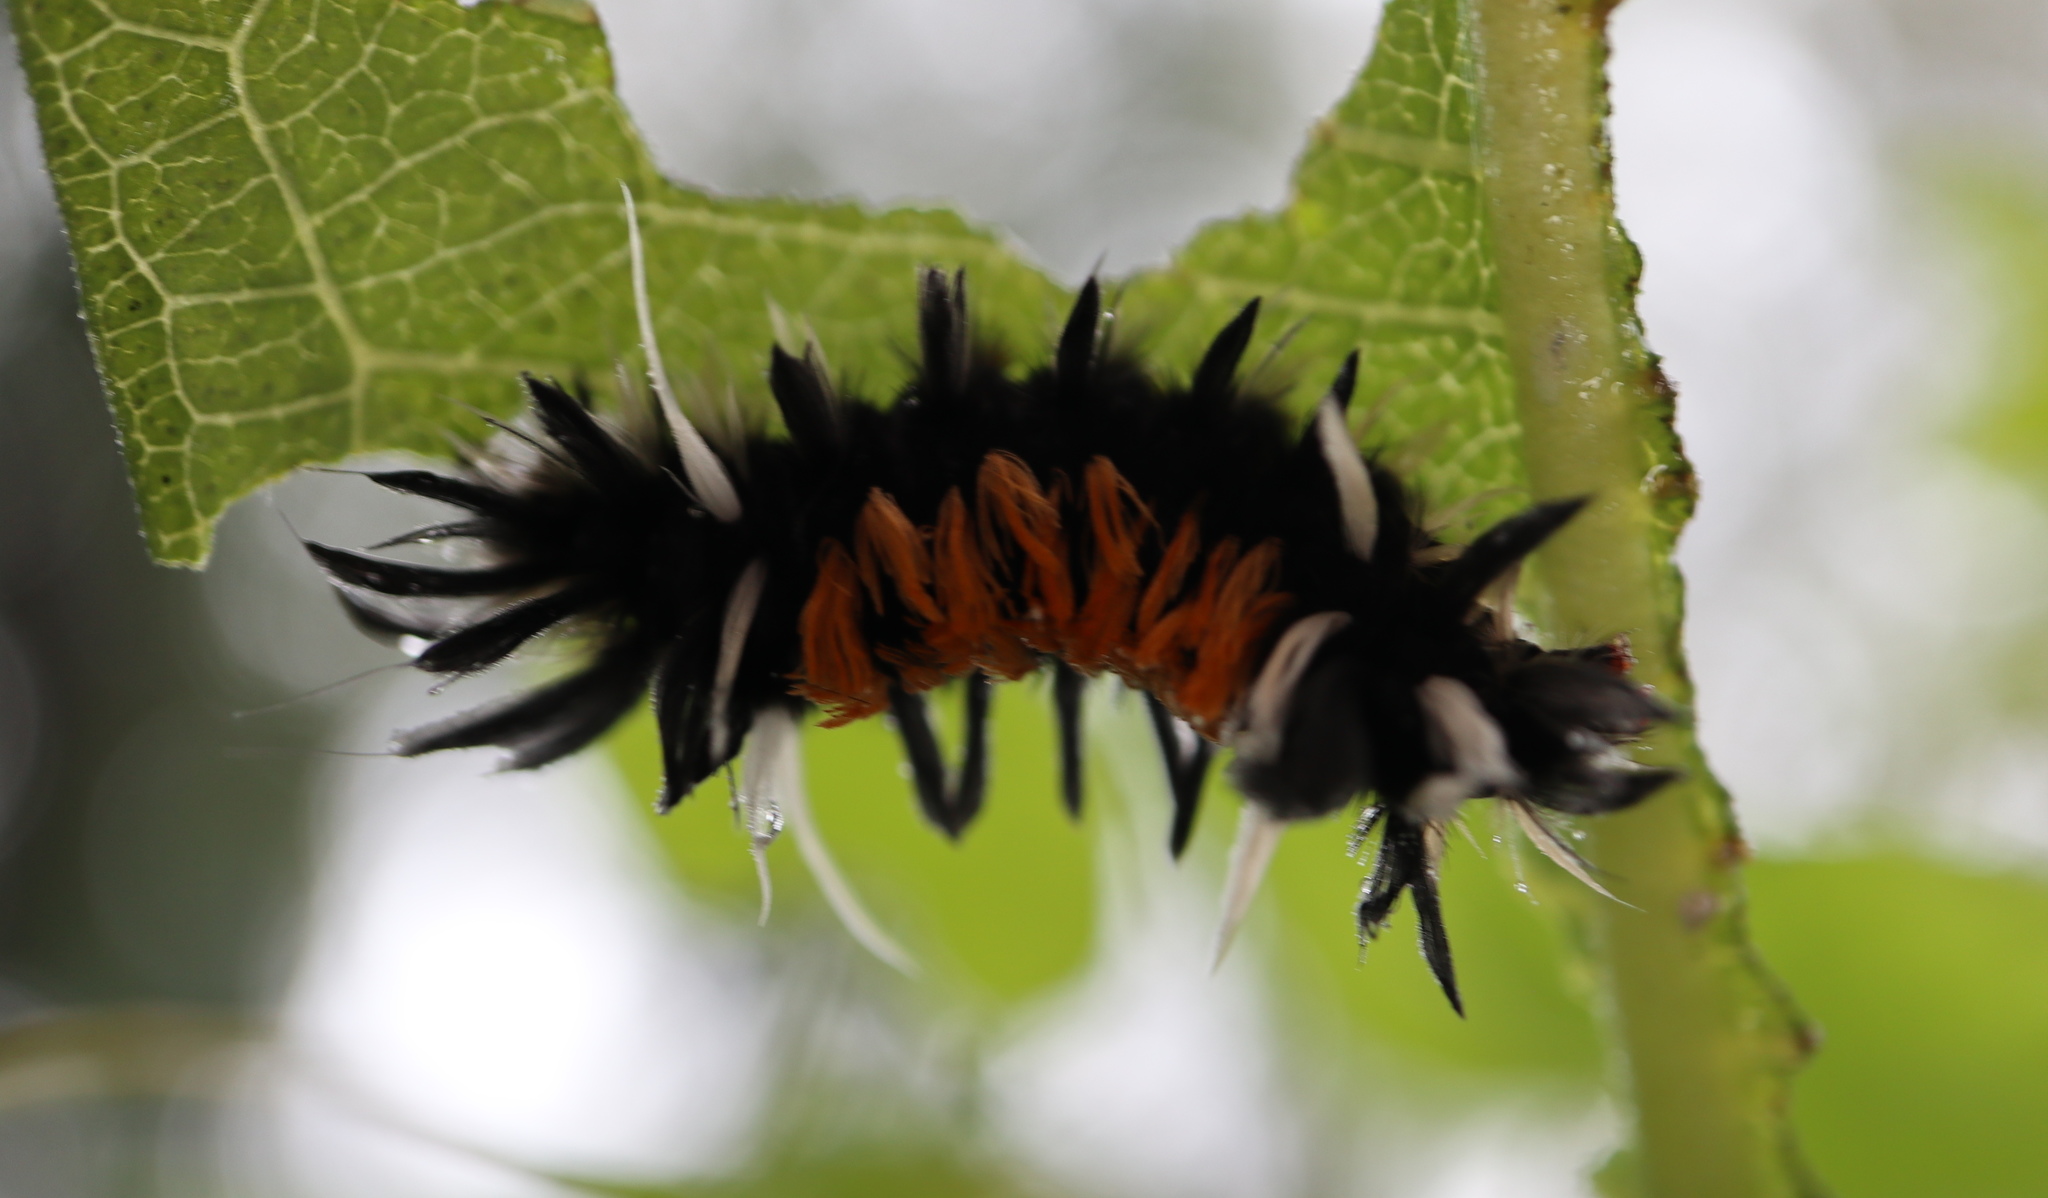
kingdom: Animalia
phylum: Arthropoda
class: Insecta
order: Lepidoptera
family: Erebidae
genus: Euchaetes
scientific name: Euchaetes egle
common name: Milkweed tussock moth
